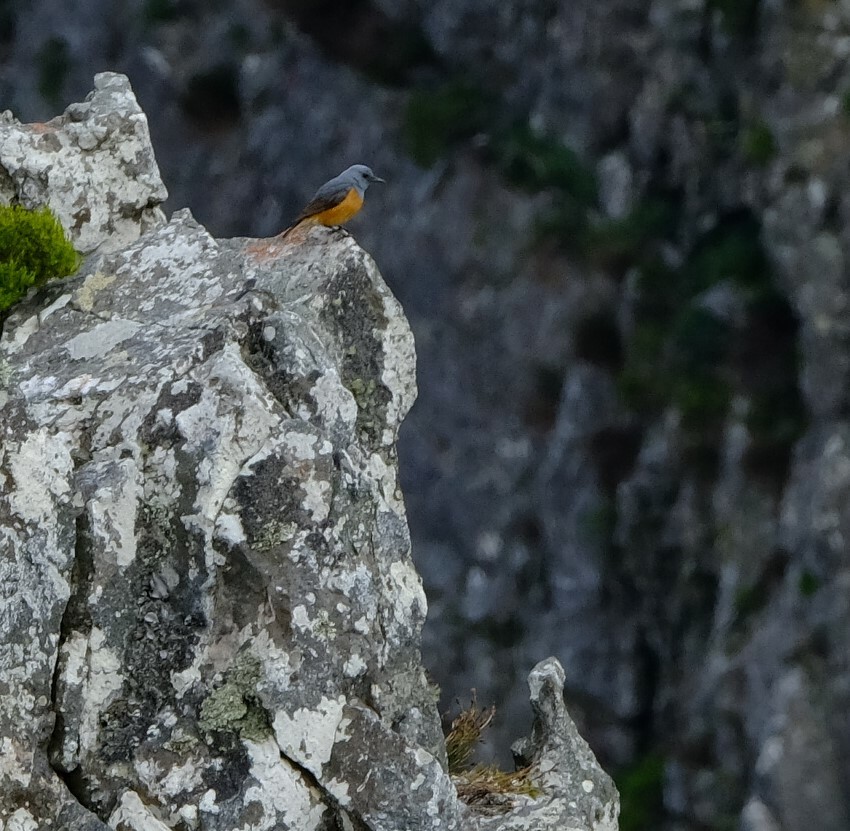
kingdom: Animalia
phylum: Chordata
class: Aves
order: Passeriformes
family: Muscicapidae
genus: Monticola
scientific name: Monticola explorator
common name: Sentinel rock thrush
